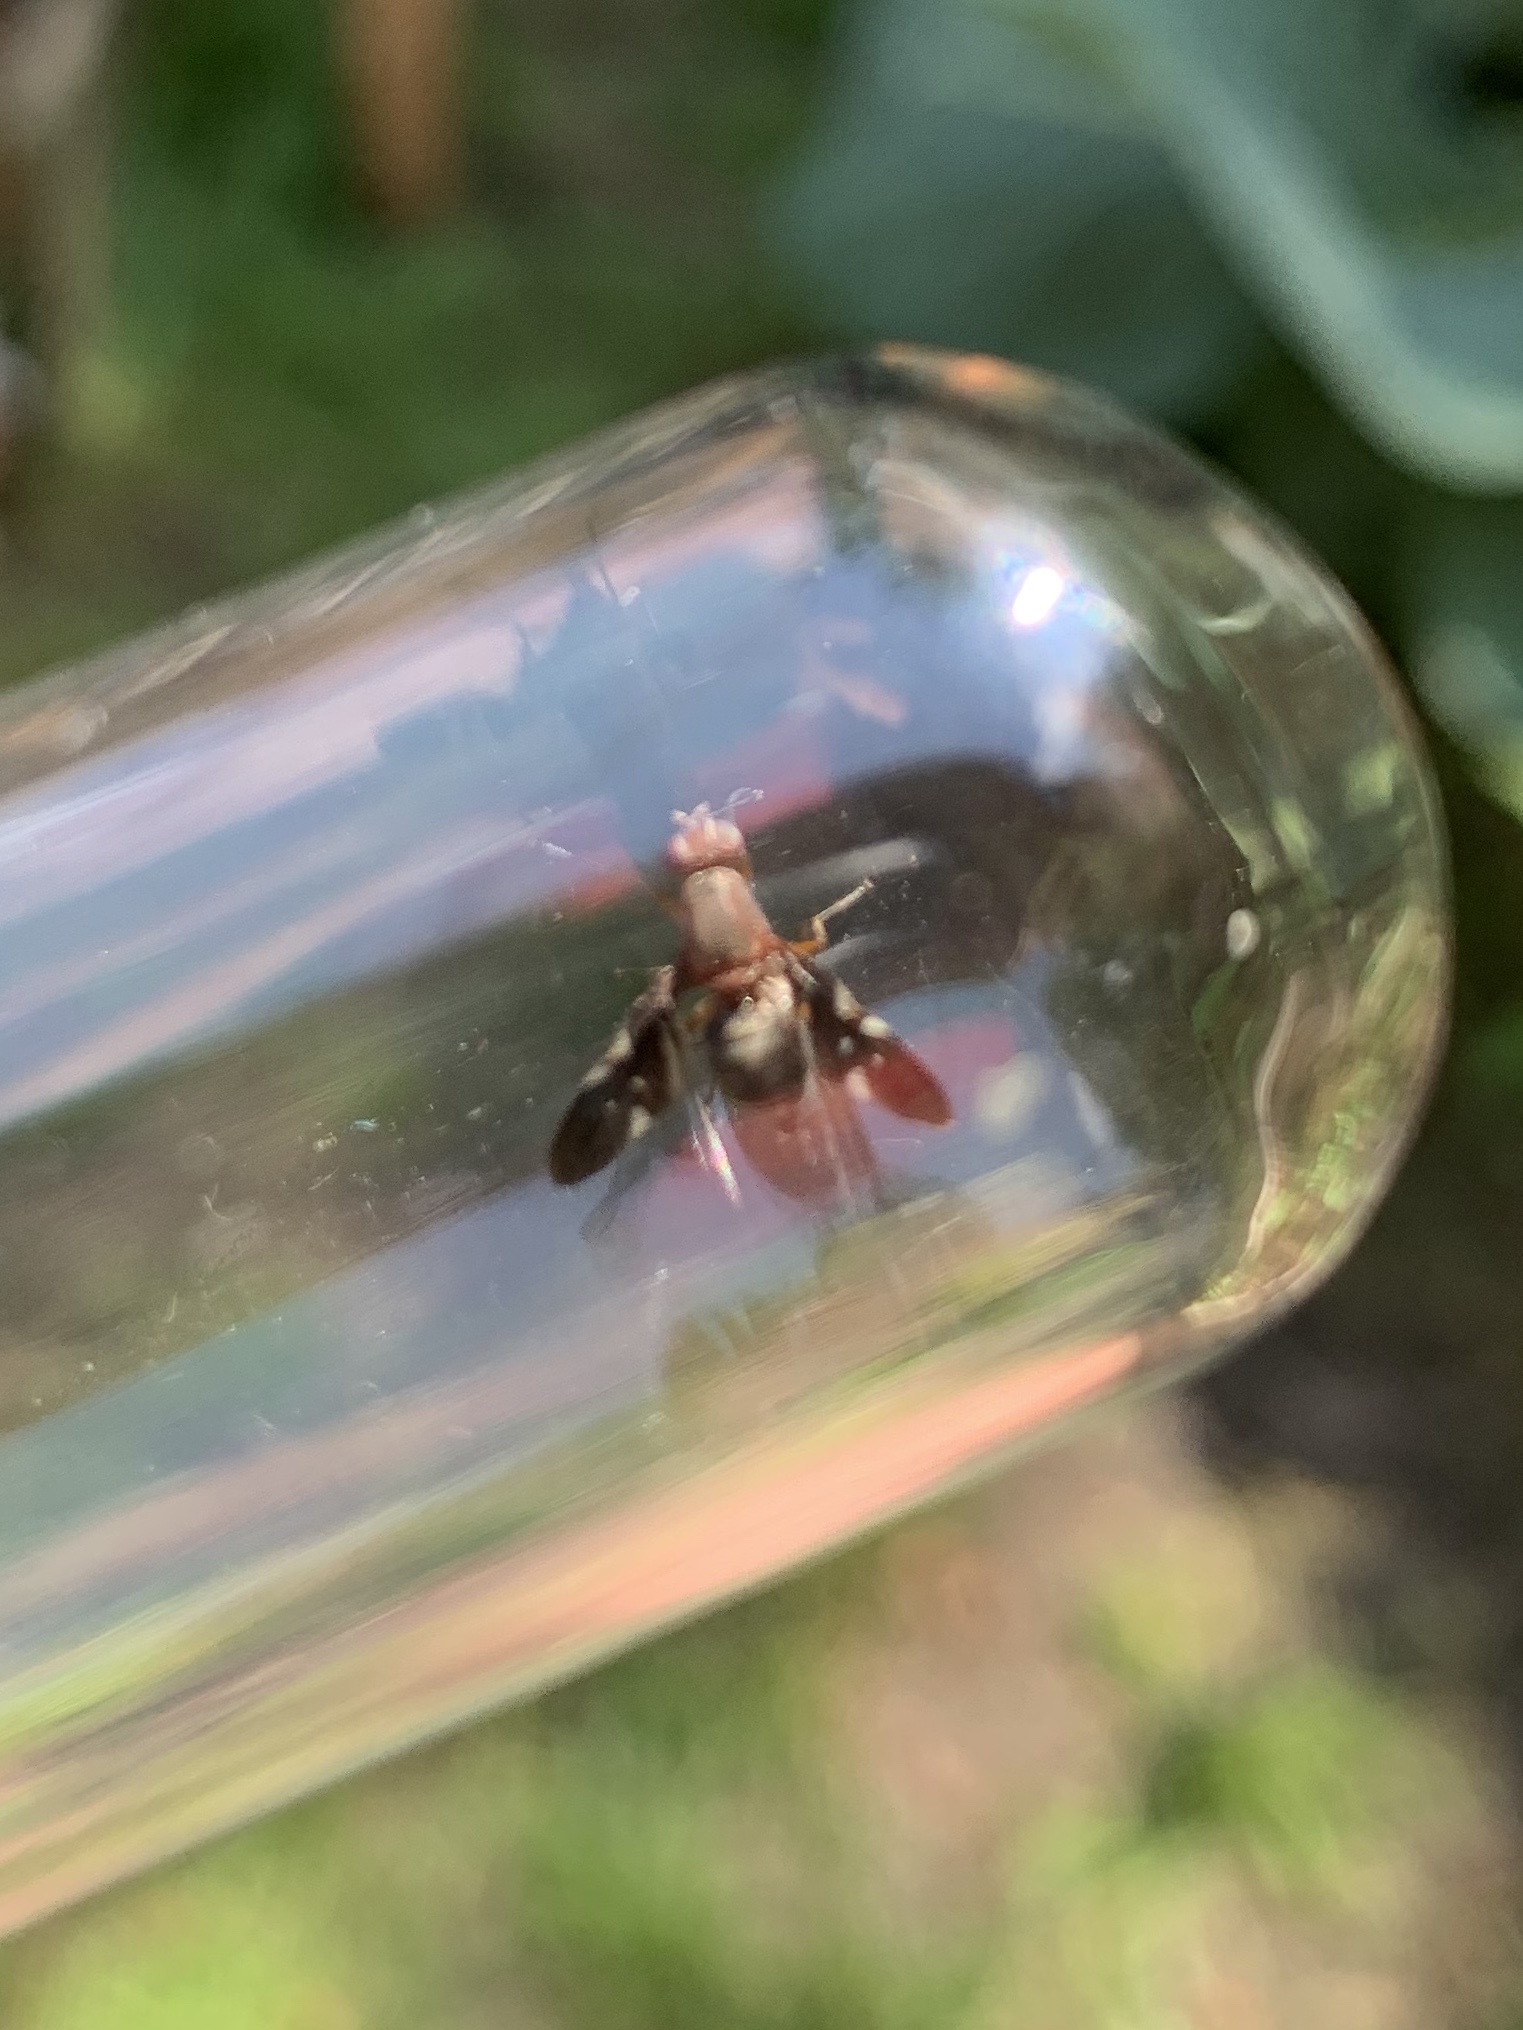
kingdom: Animalia
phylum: Arthropoda
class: Insecta
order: Diptera
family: Ulidiidae
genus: Delphinia
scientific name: Delphinia picta
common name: Common picture-winged fly
